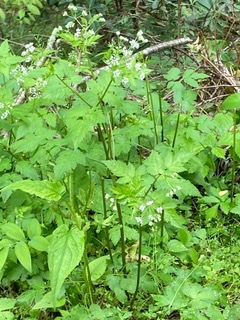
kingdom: Plantae
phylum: Tracheophyta
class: Magnoliopsida
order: Apiales
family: Apiaceae
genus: Osmorhiza
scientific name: Osmorhiza longistylis
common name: Smooth sweet cicely
